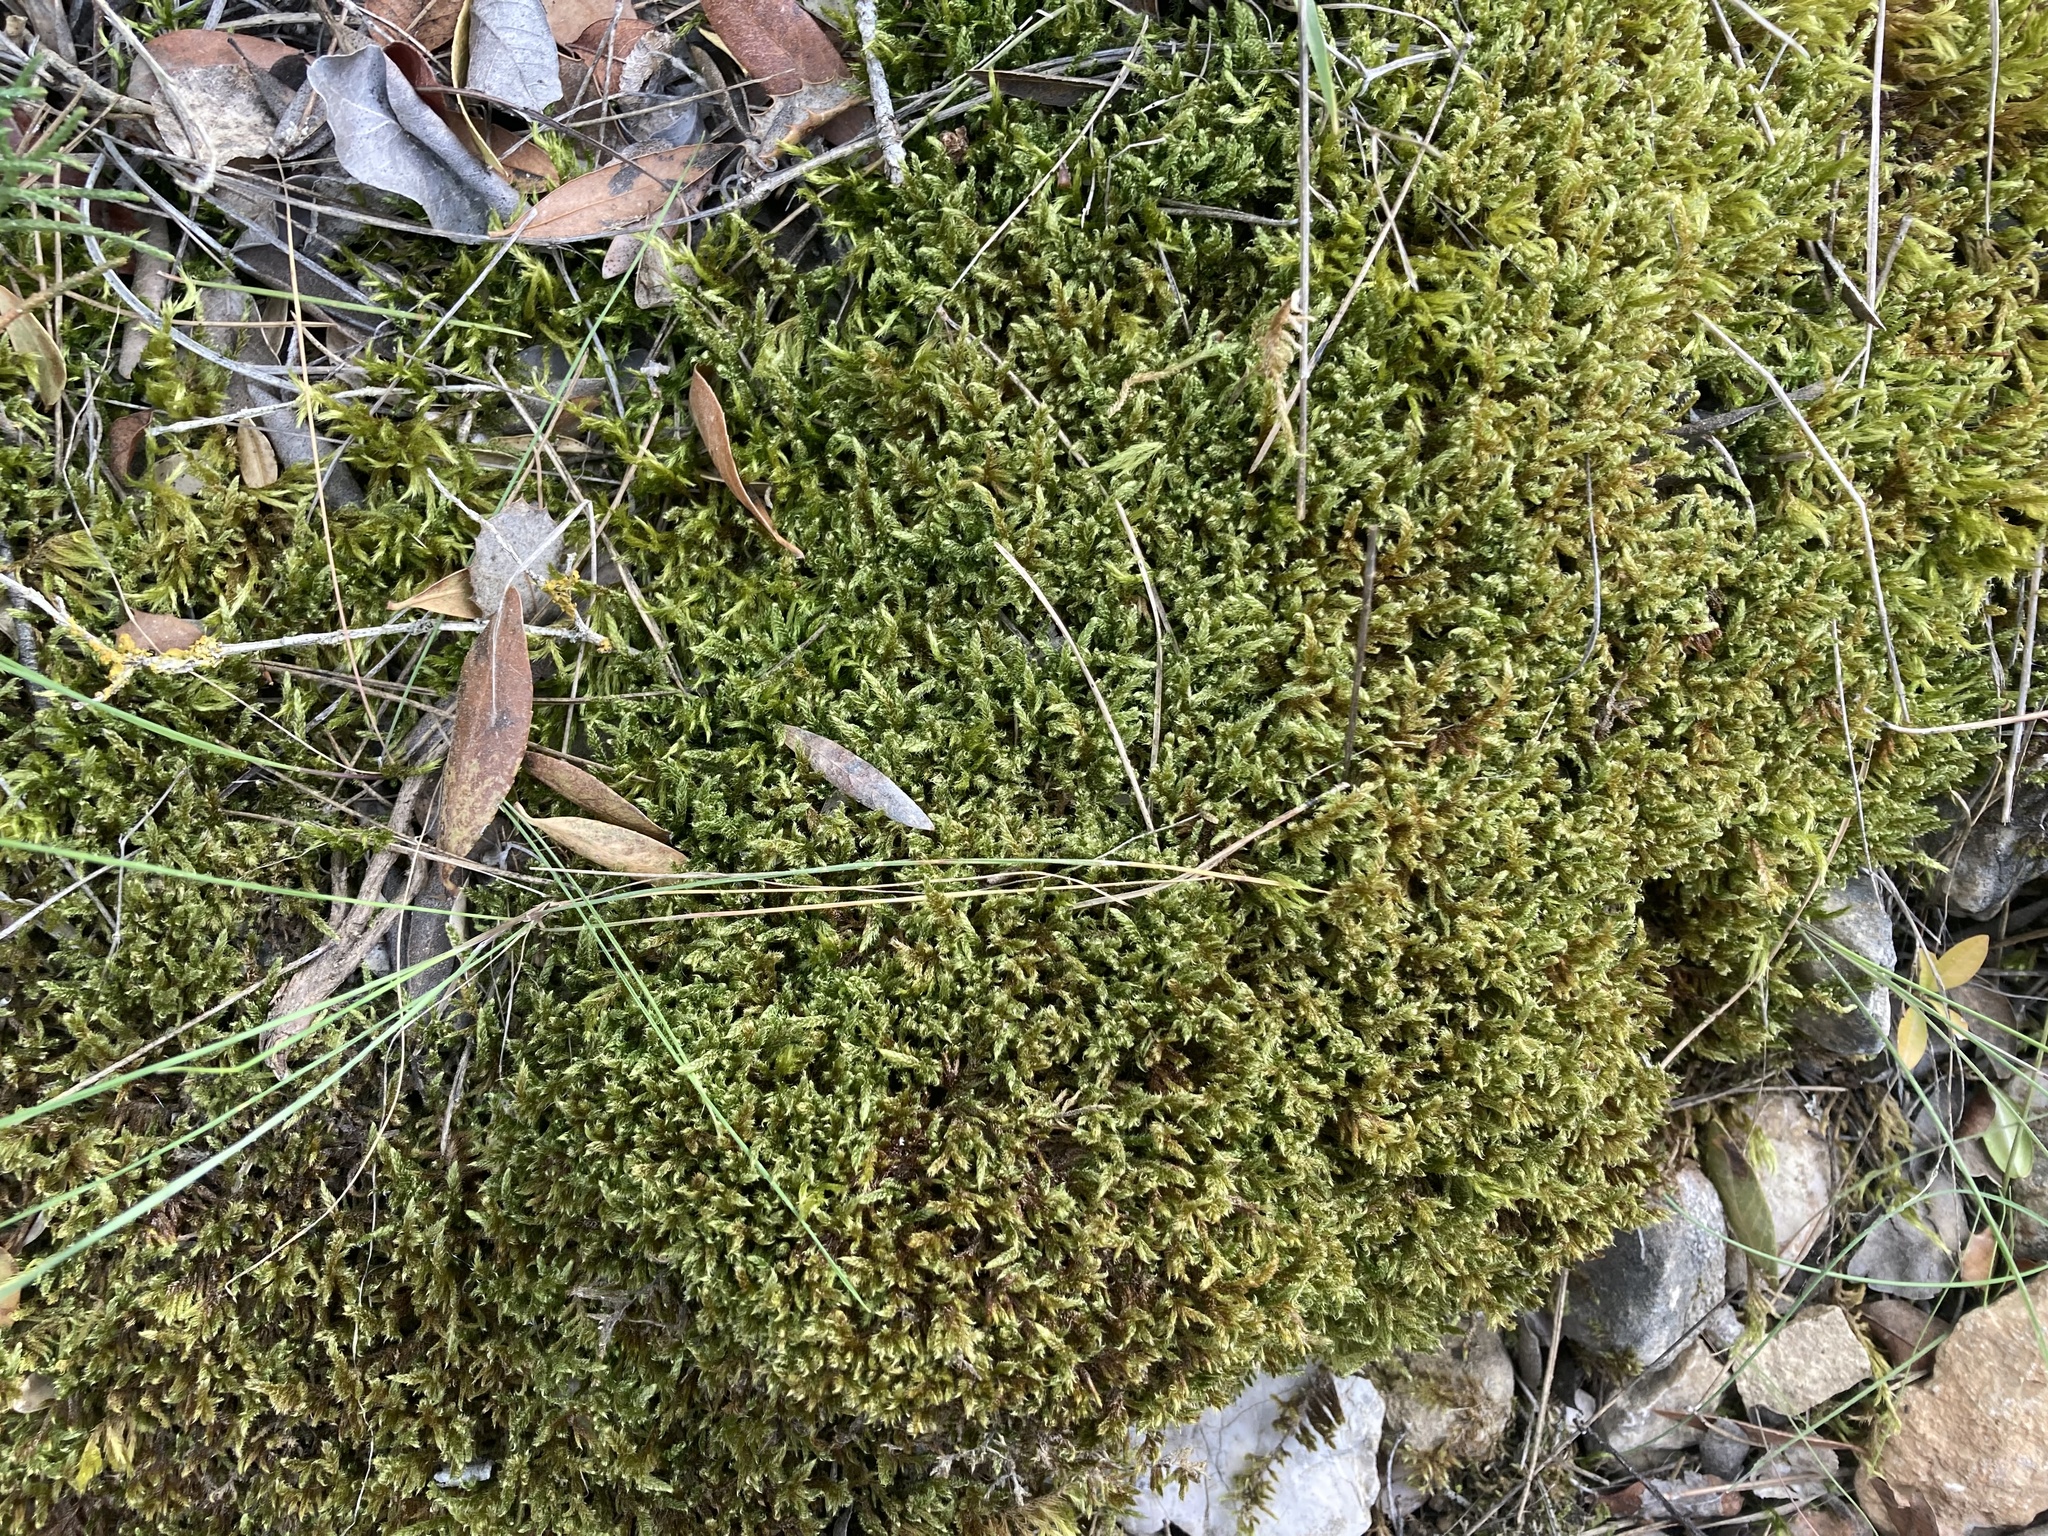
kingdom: Plantae
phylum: Bryophyta
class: Bryopsida
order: Hypnales
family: Hypnaceae
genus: Hypnum
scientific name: Hypnum cupressiforme
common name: Cypress-leaved plait-moss
